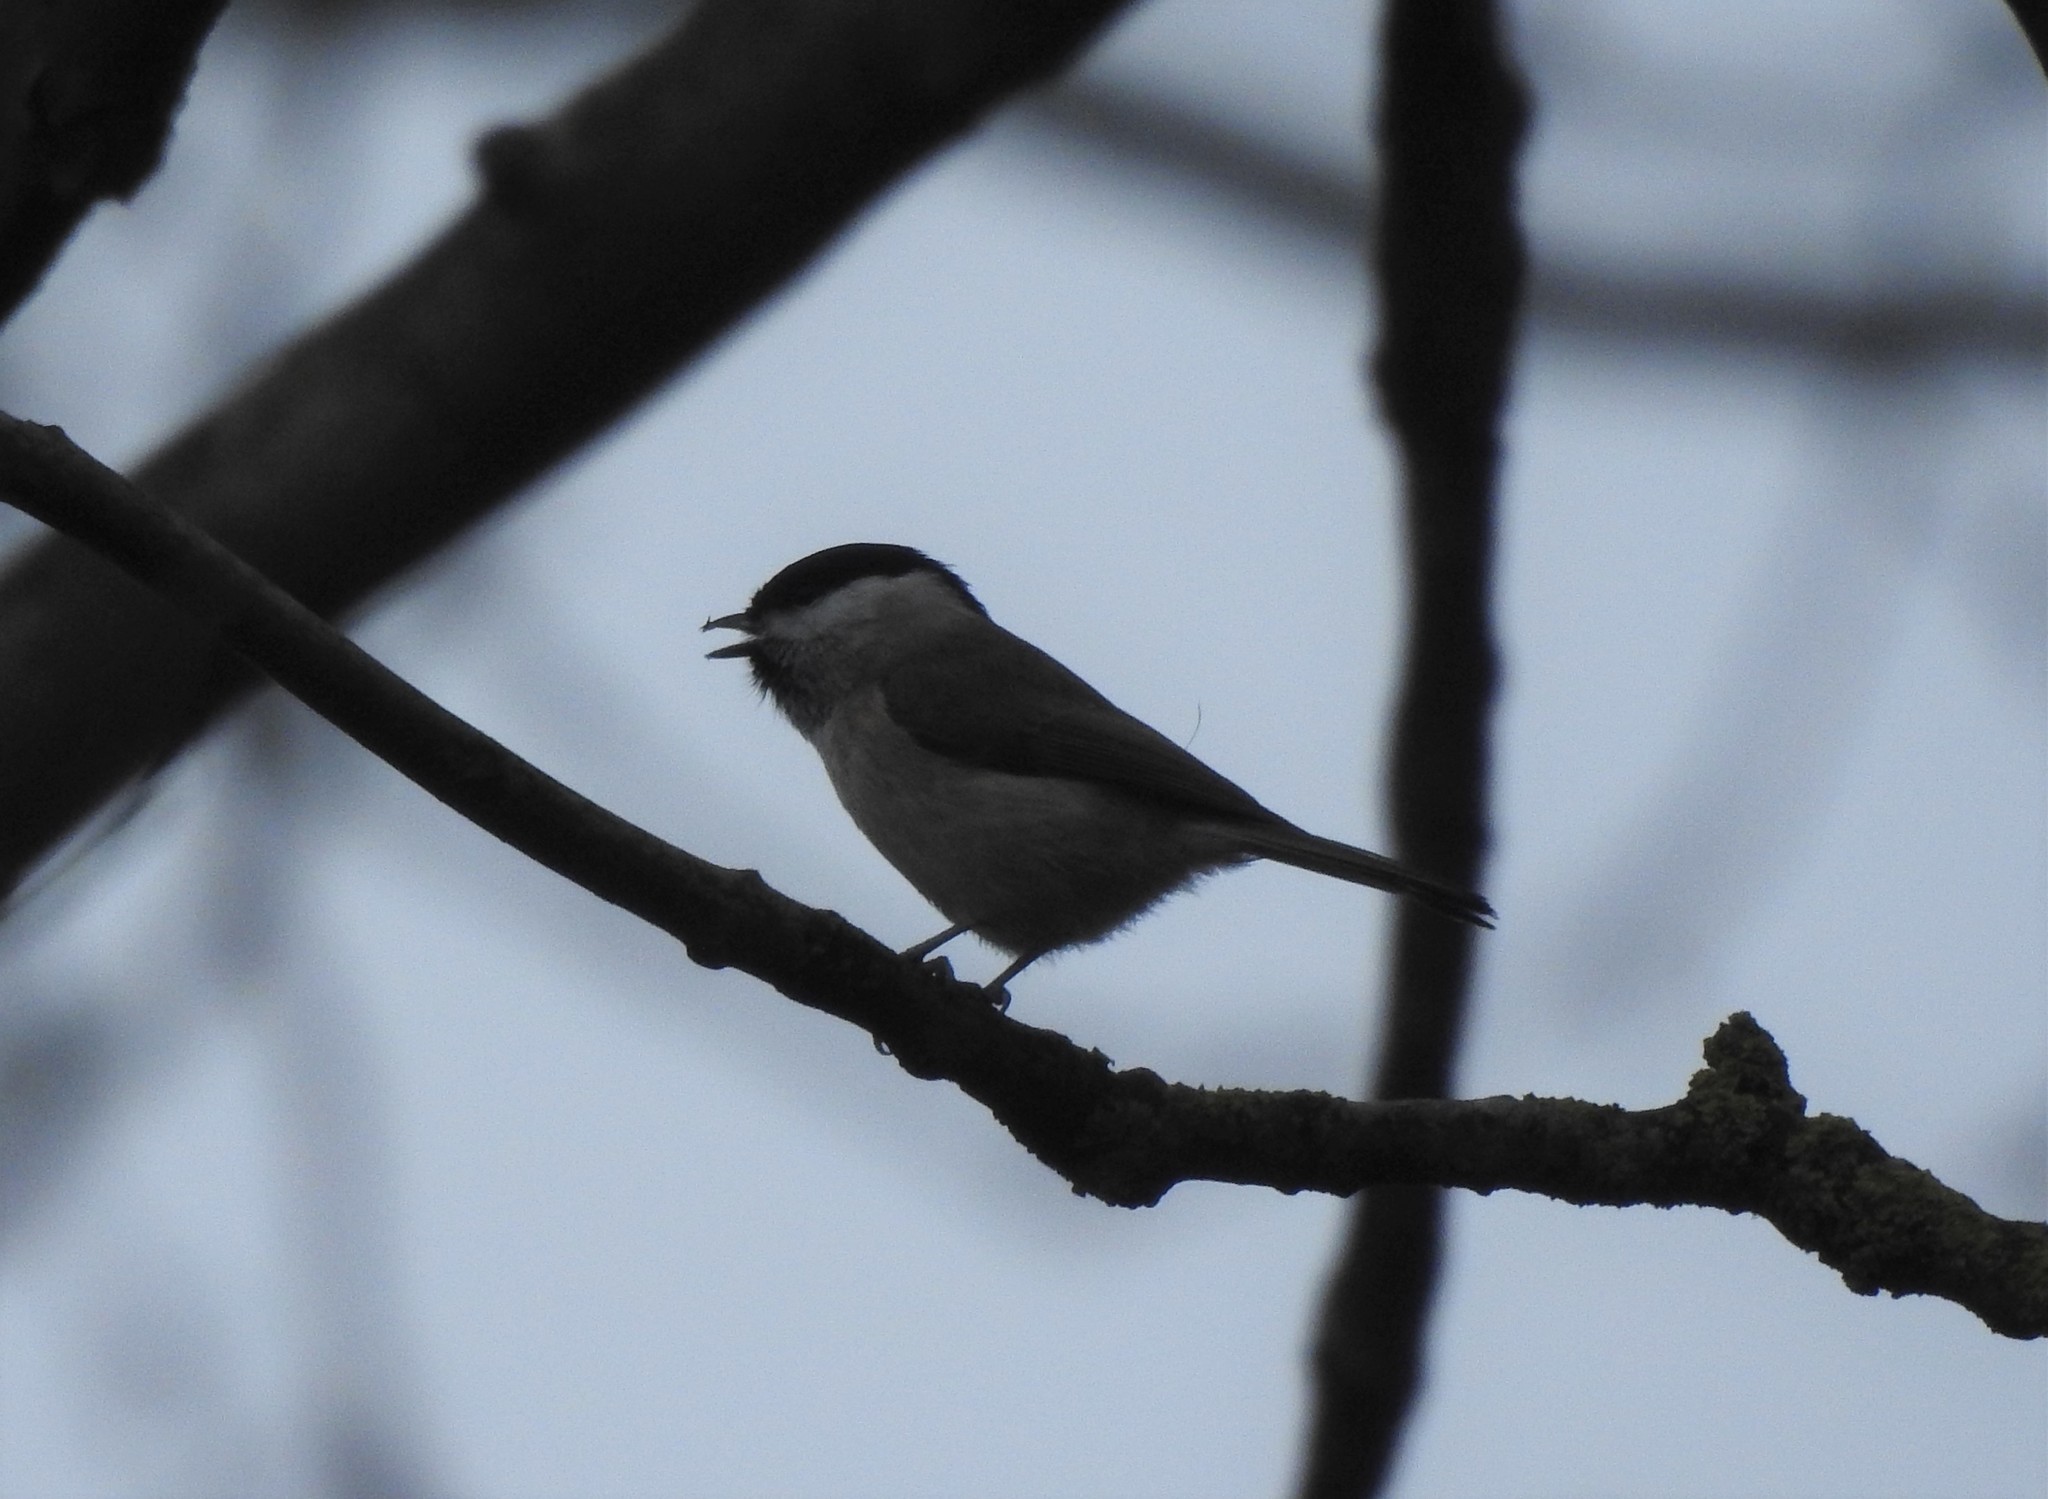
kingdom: Animalia
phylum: Chordata
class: Aves
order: Passeriformes
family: Paridae
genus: Poecile
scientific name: Poecile palustris
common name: Marsh tit
